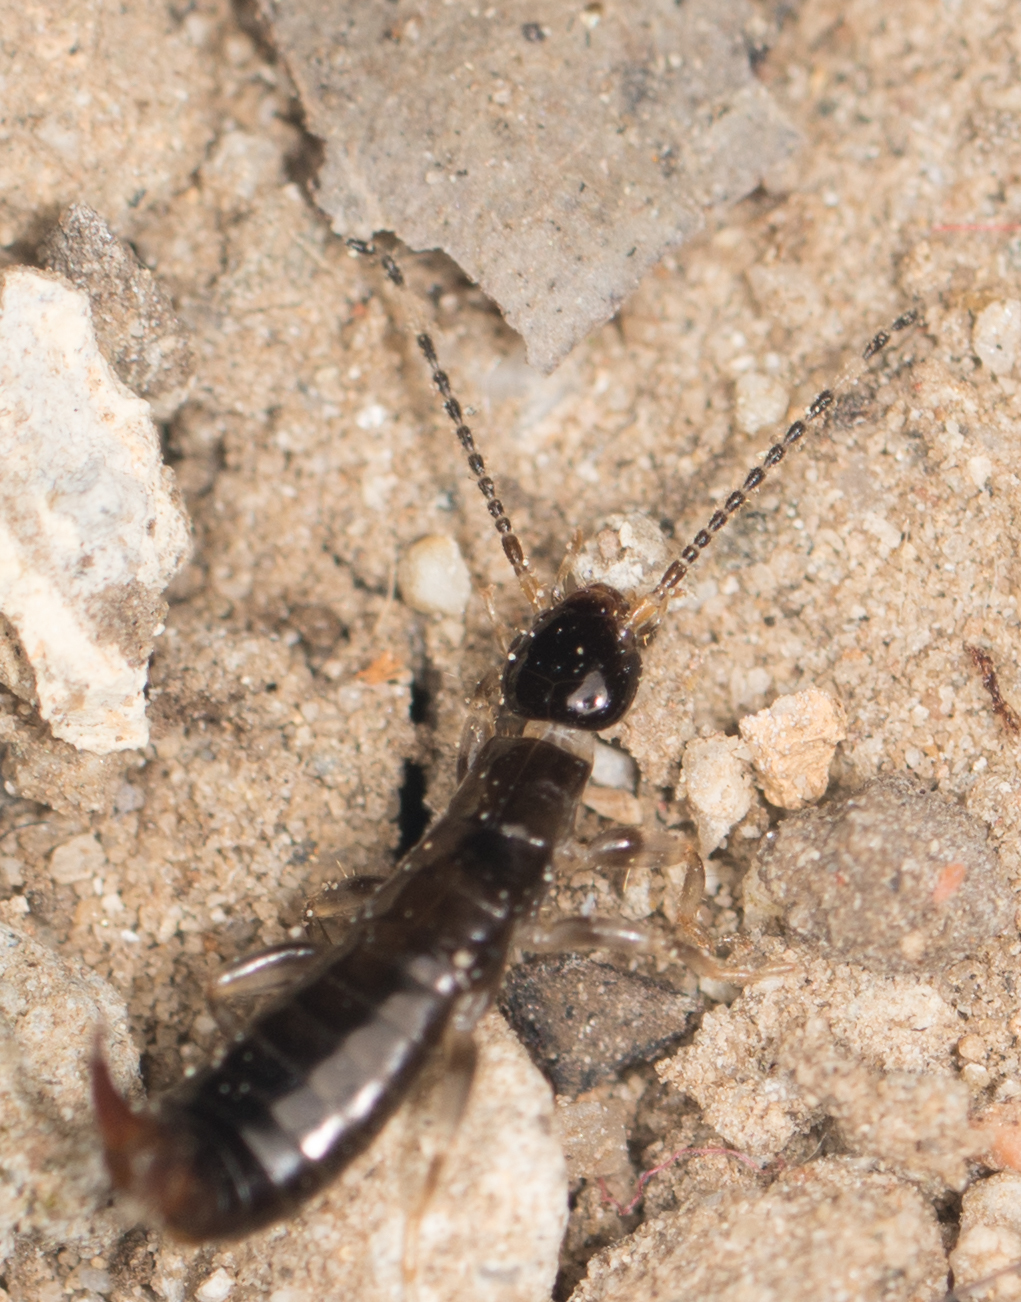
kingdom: Animalia
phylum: Arthropoda
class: Insecta
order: Dermaptera
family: Anisolabididae
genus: Euborellia
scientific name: Euborellia annulipes
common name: Ringlegged earwig
